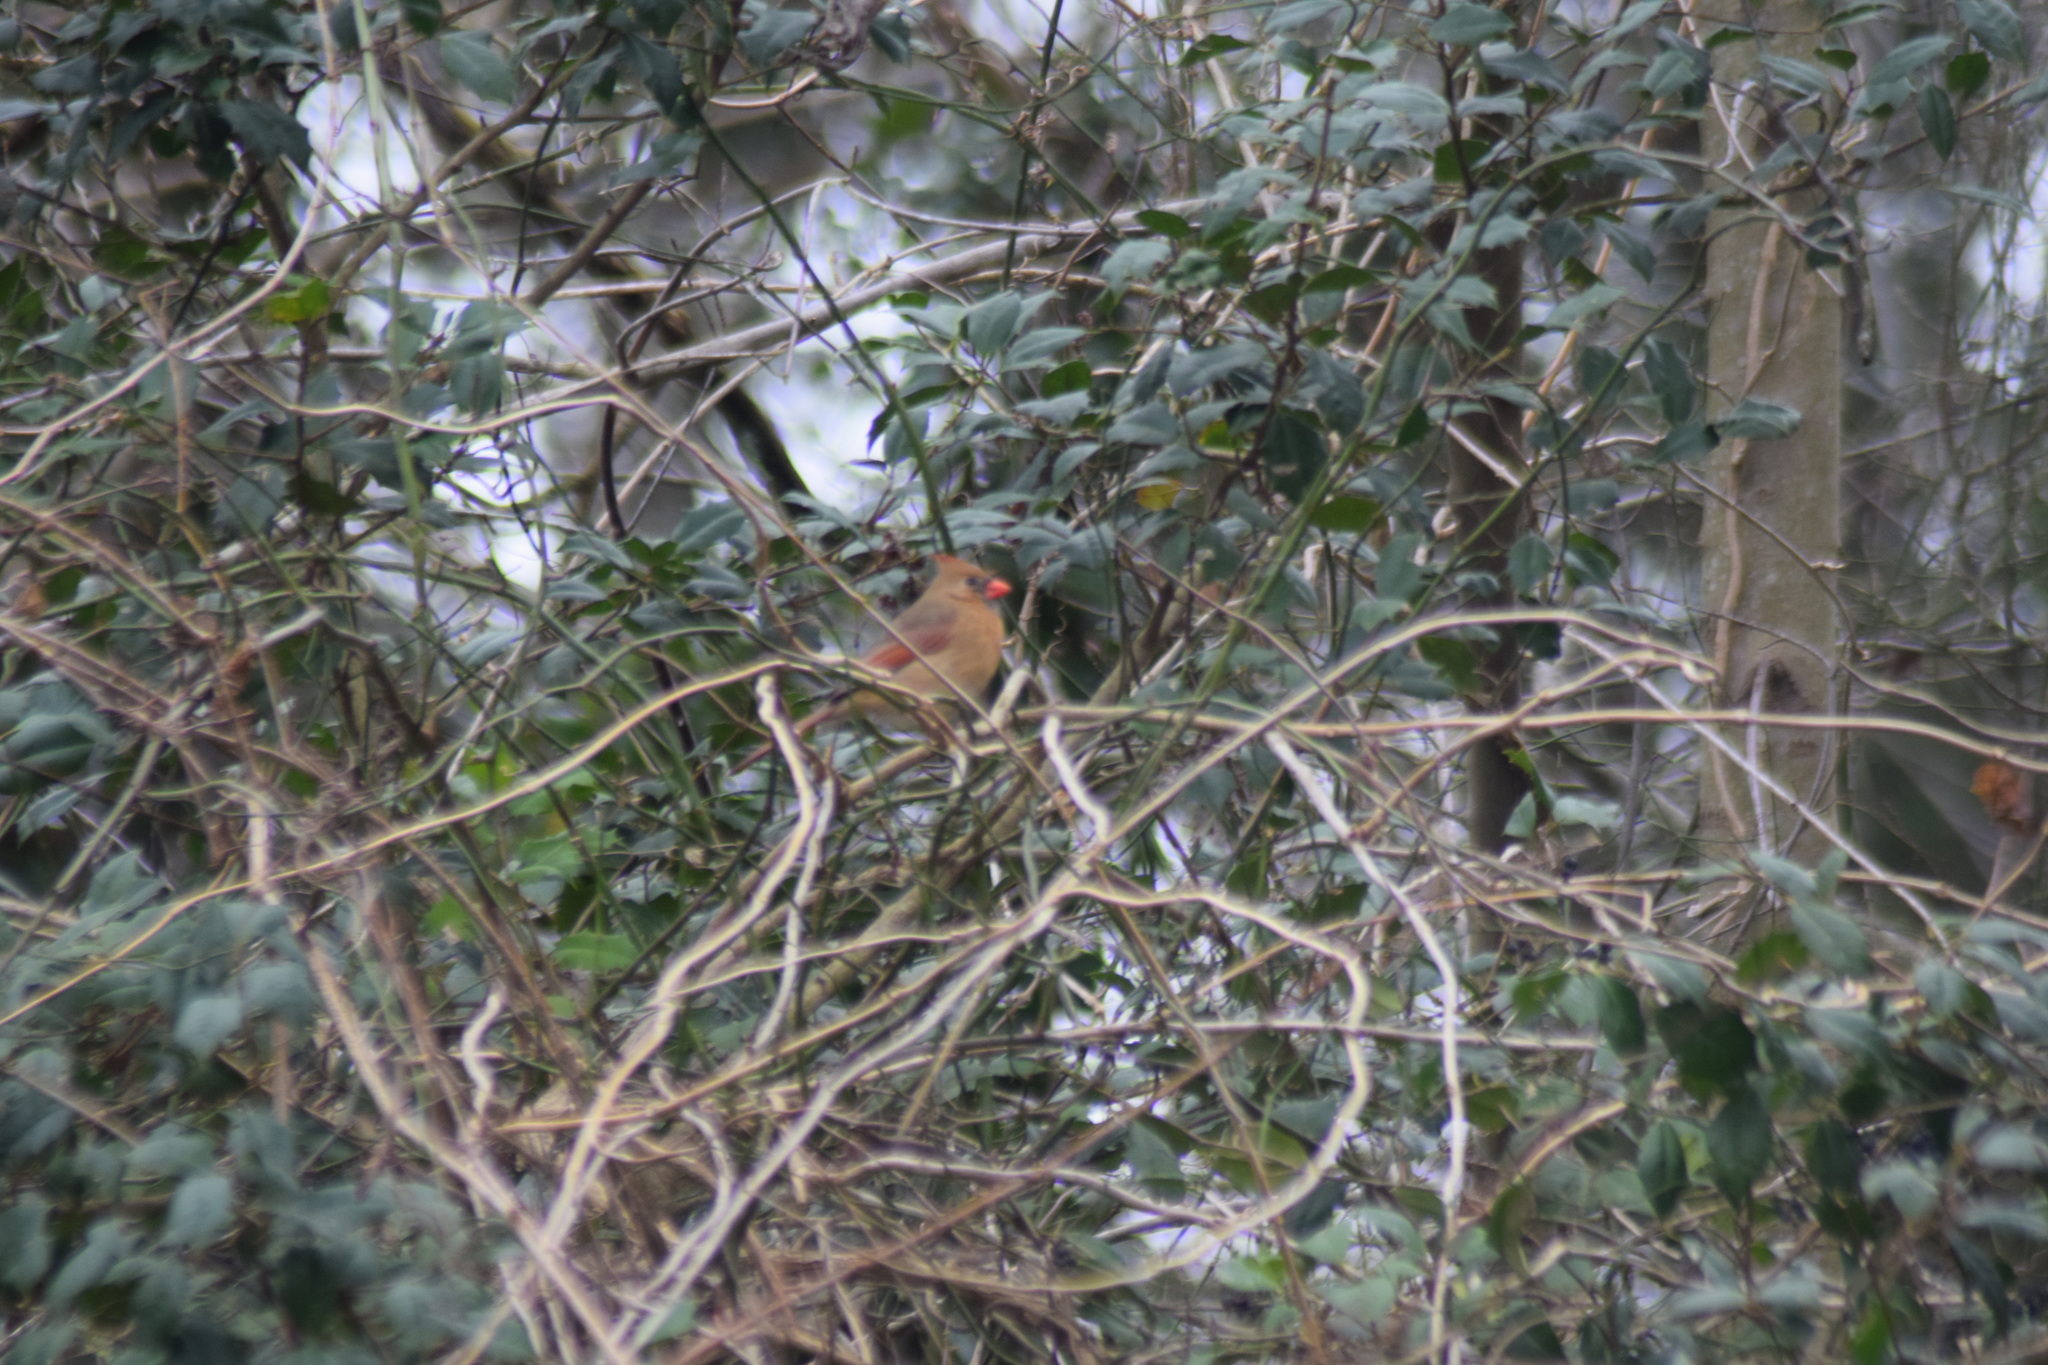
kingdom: Animalia
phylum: Chordata
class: Aves
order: Passeriformes
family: Cardinalidae
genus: Cardinalis
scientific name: Cardinalis cardinalis
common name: Northern cardinal
